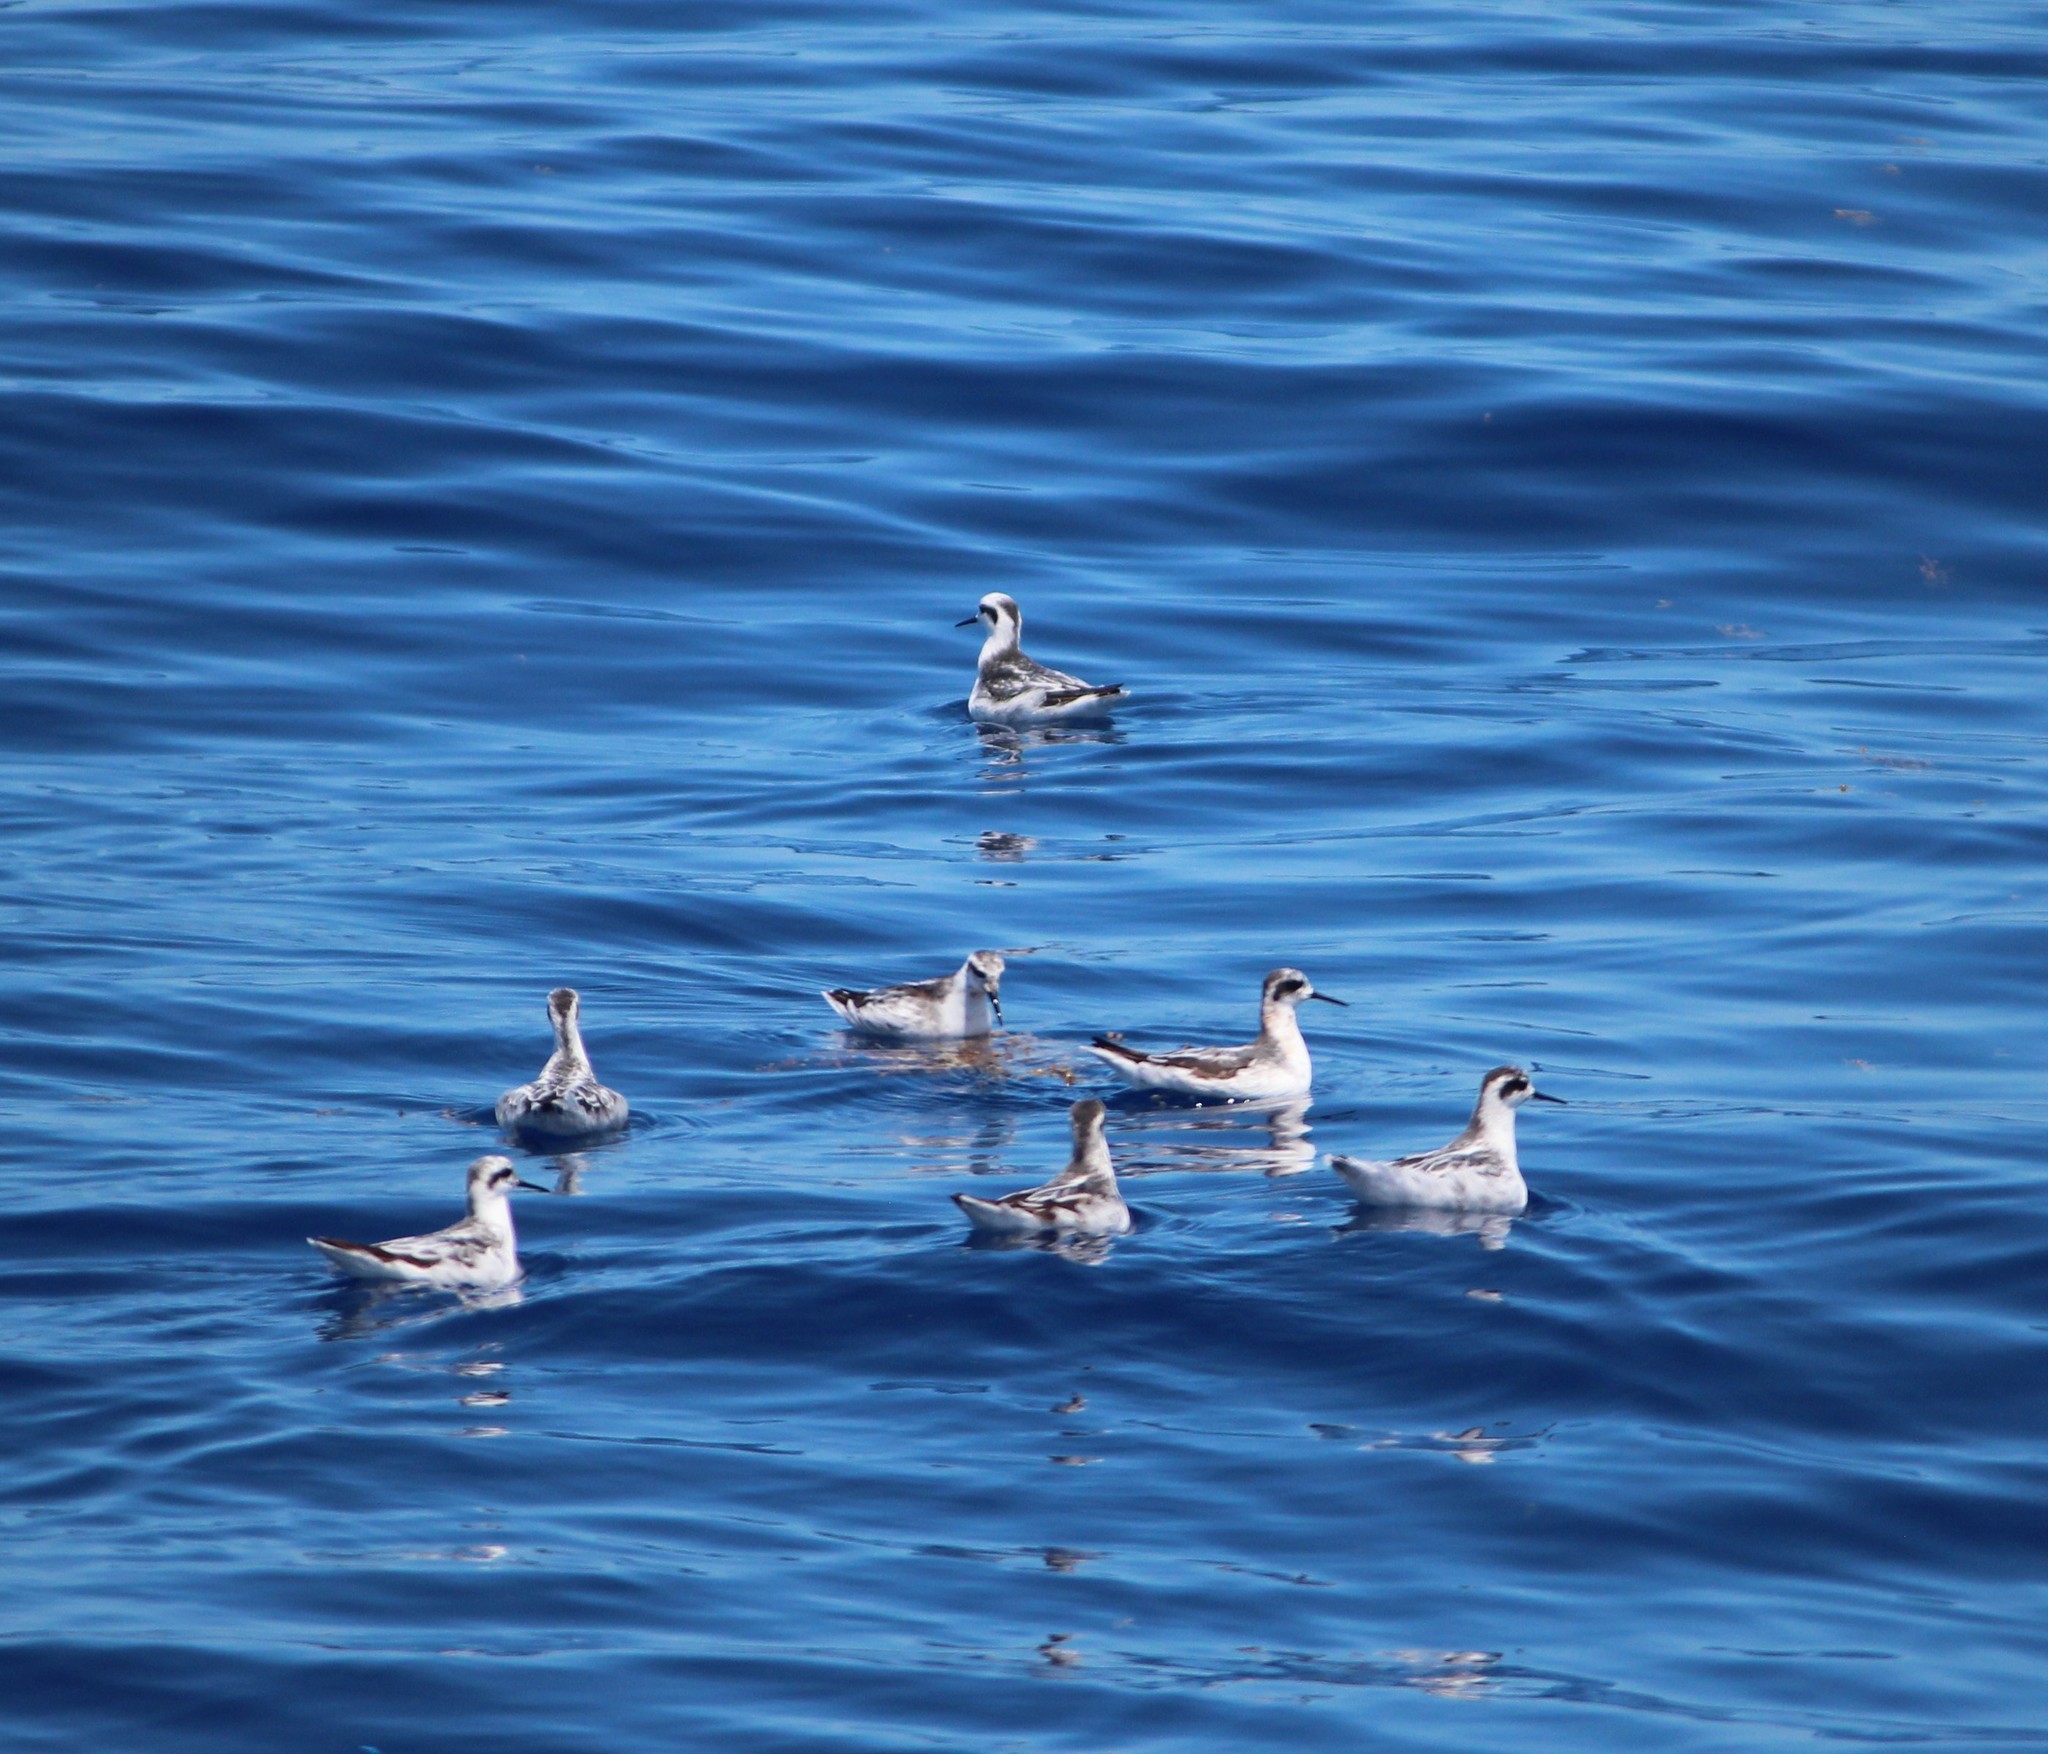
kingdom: Animalia
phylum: Chordata
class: Aves
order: Charadriiformes
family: Scolopacidae
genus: Phalaropus
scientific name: Phalaropus lobatus
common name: Red-necked phalarope
